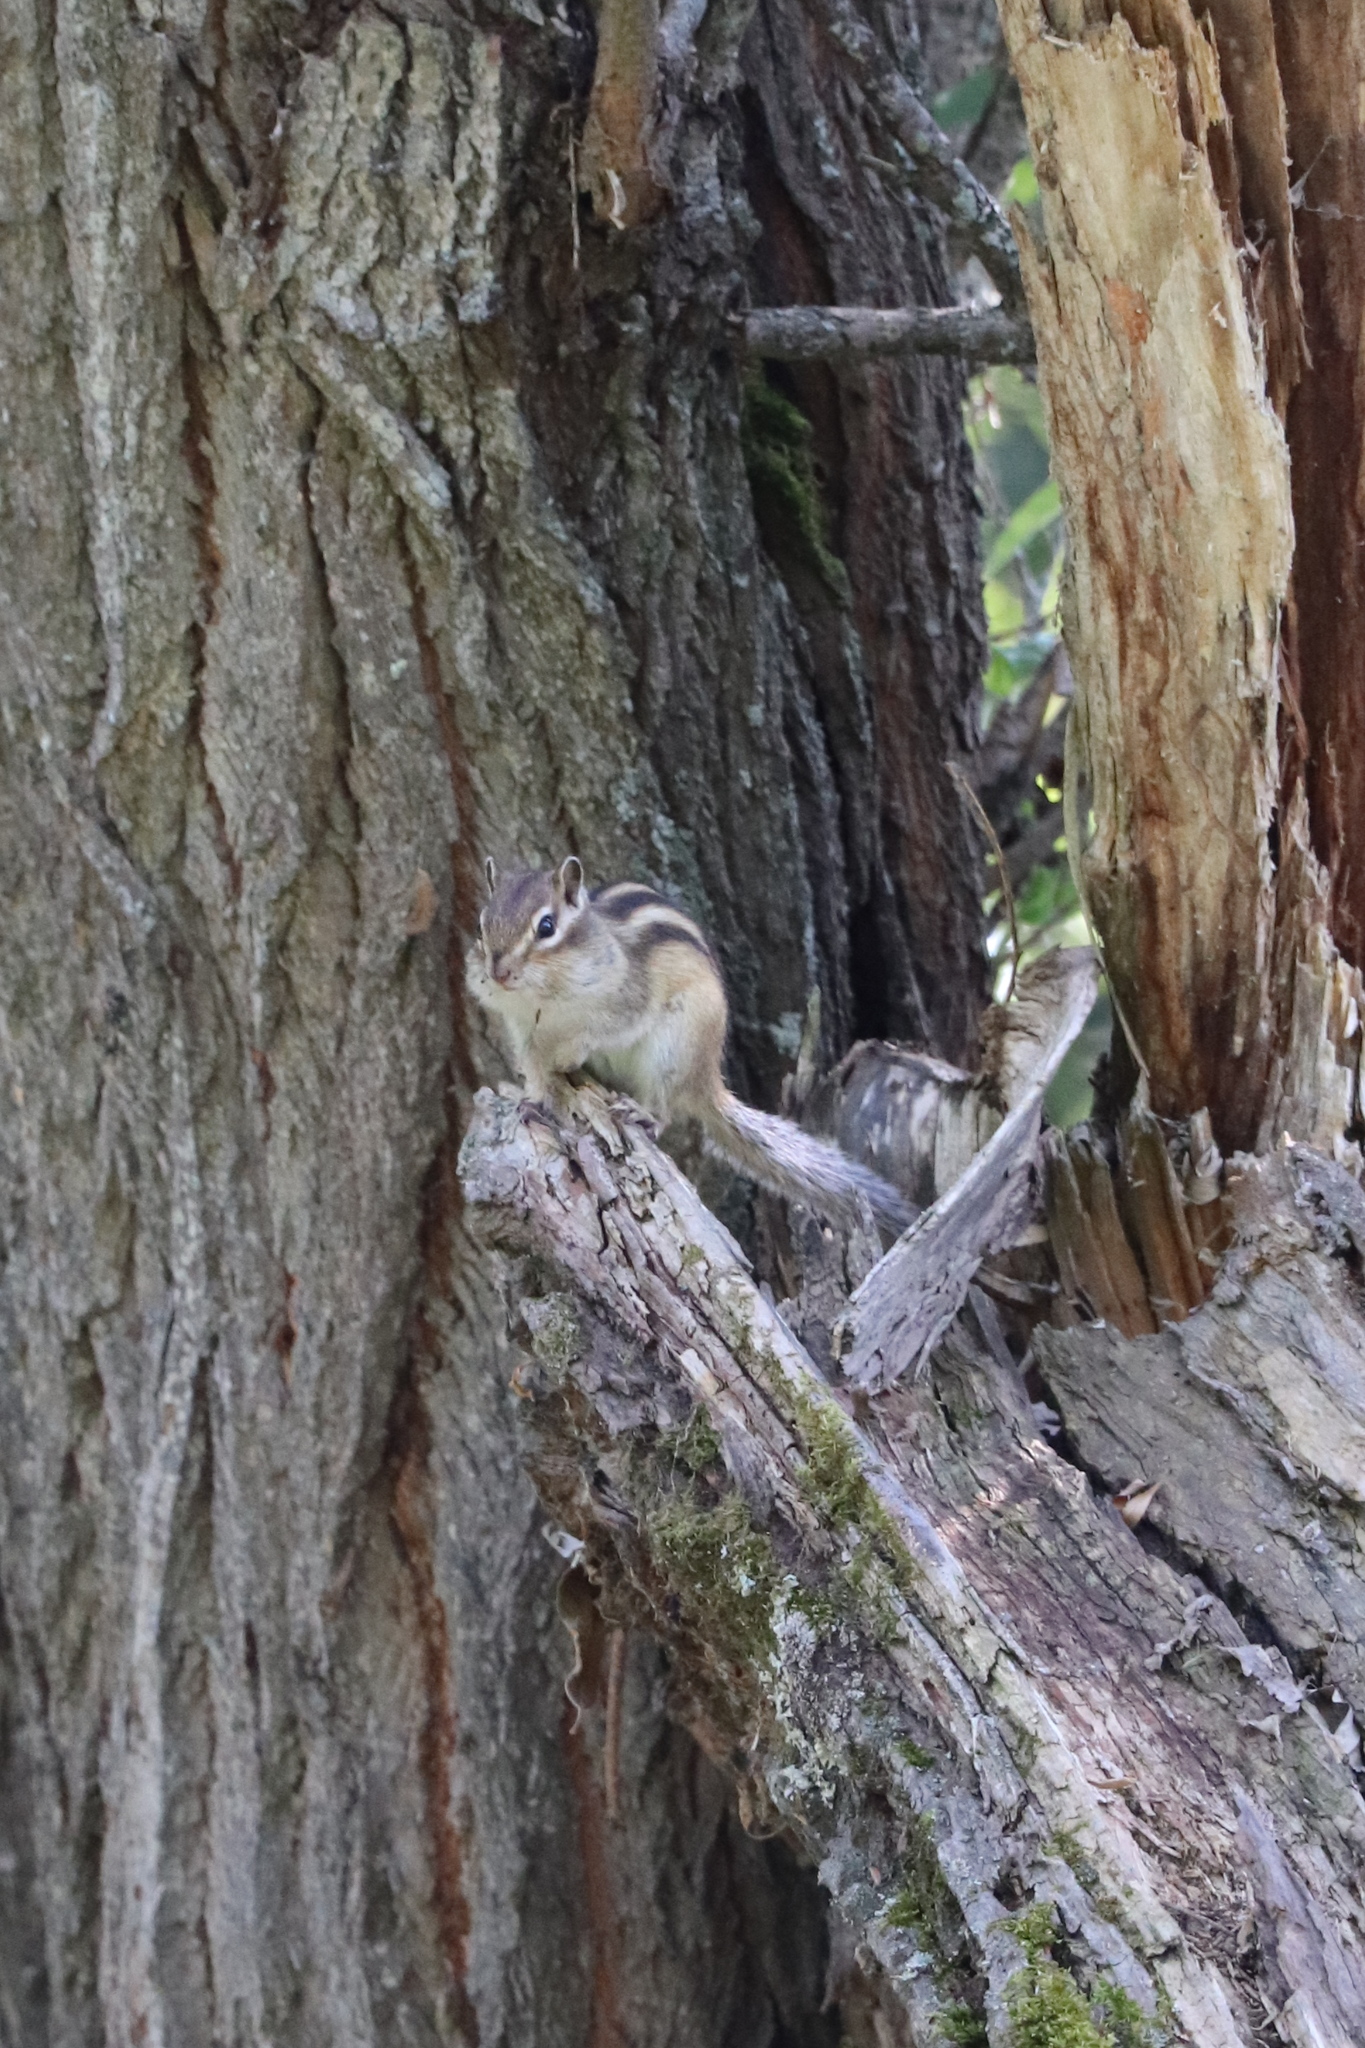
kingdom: Animalia
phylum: Chordata
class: Mammalia
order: Rodentia
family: Sciuridae
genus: Tamias
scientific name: Tamias sibiricus
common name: Siberian chipmunk
